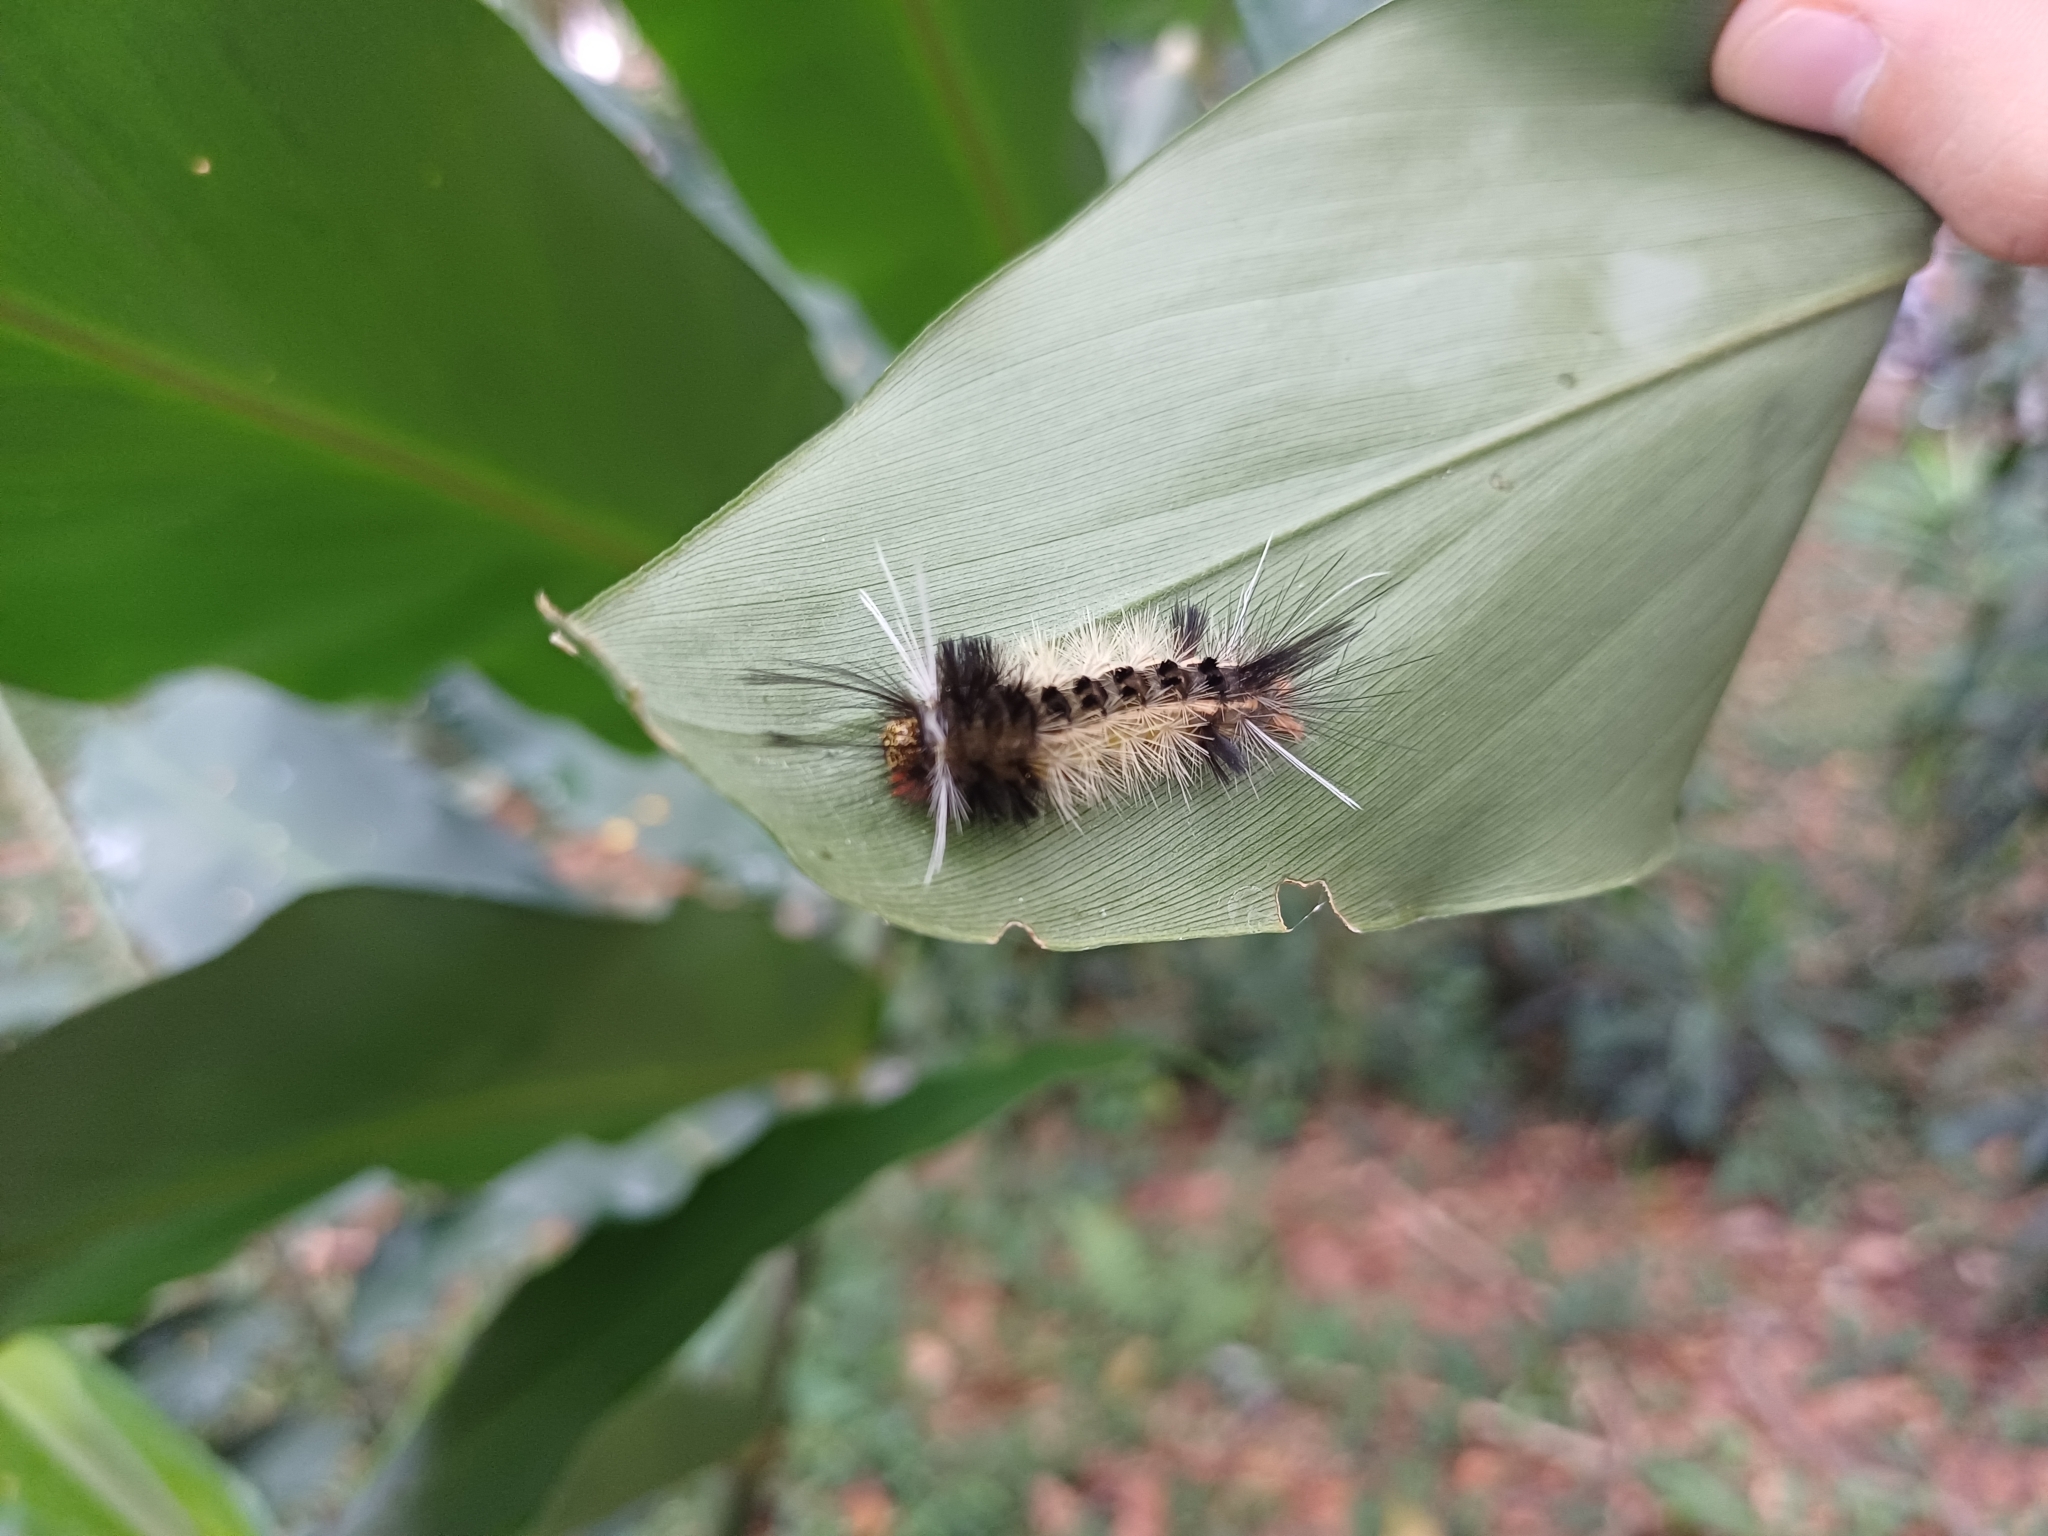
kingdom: Animalia
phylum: Arthropoda
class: Insecta
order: Lepidoptera
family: Erebidae
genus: Carales
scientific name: Carales astur
